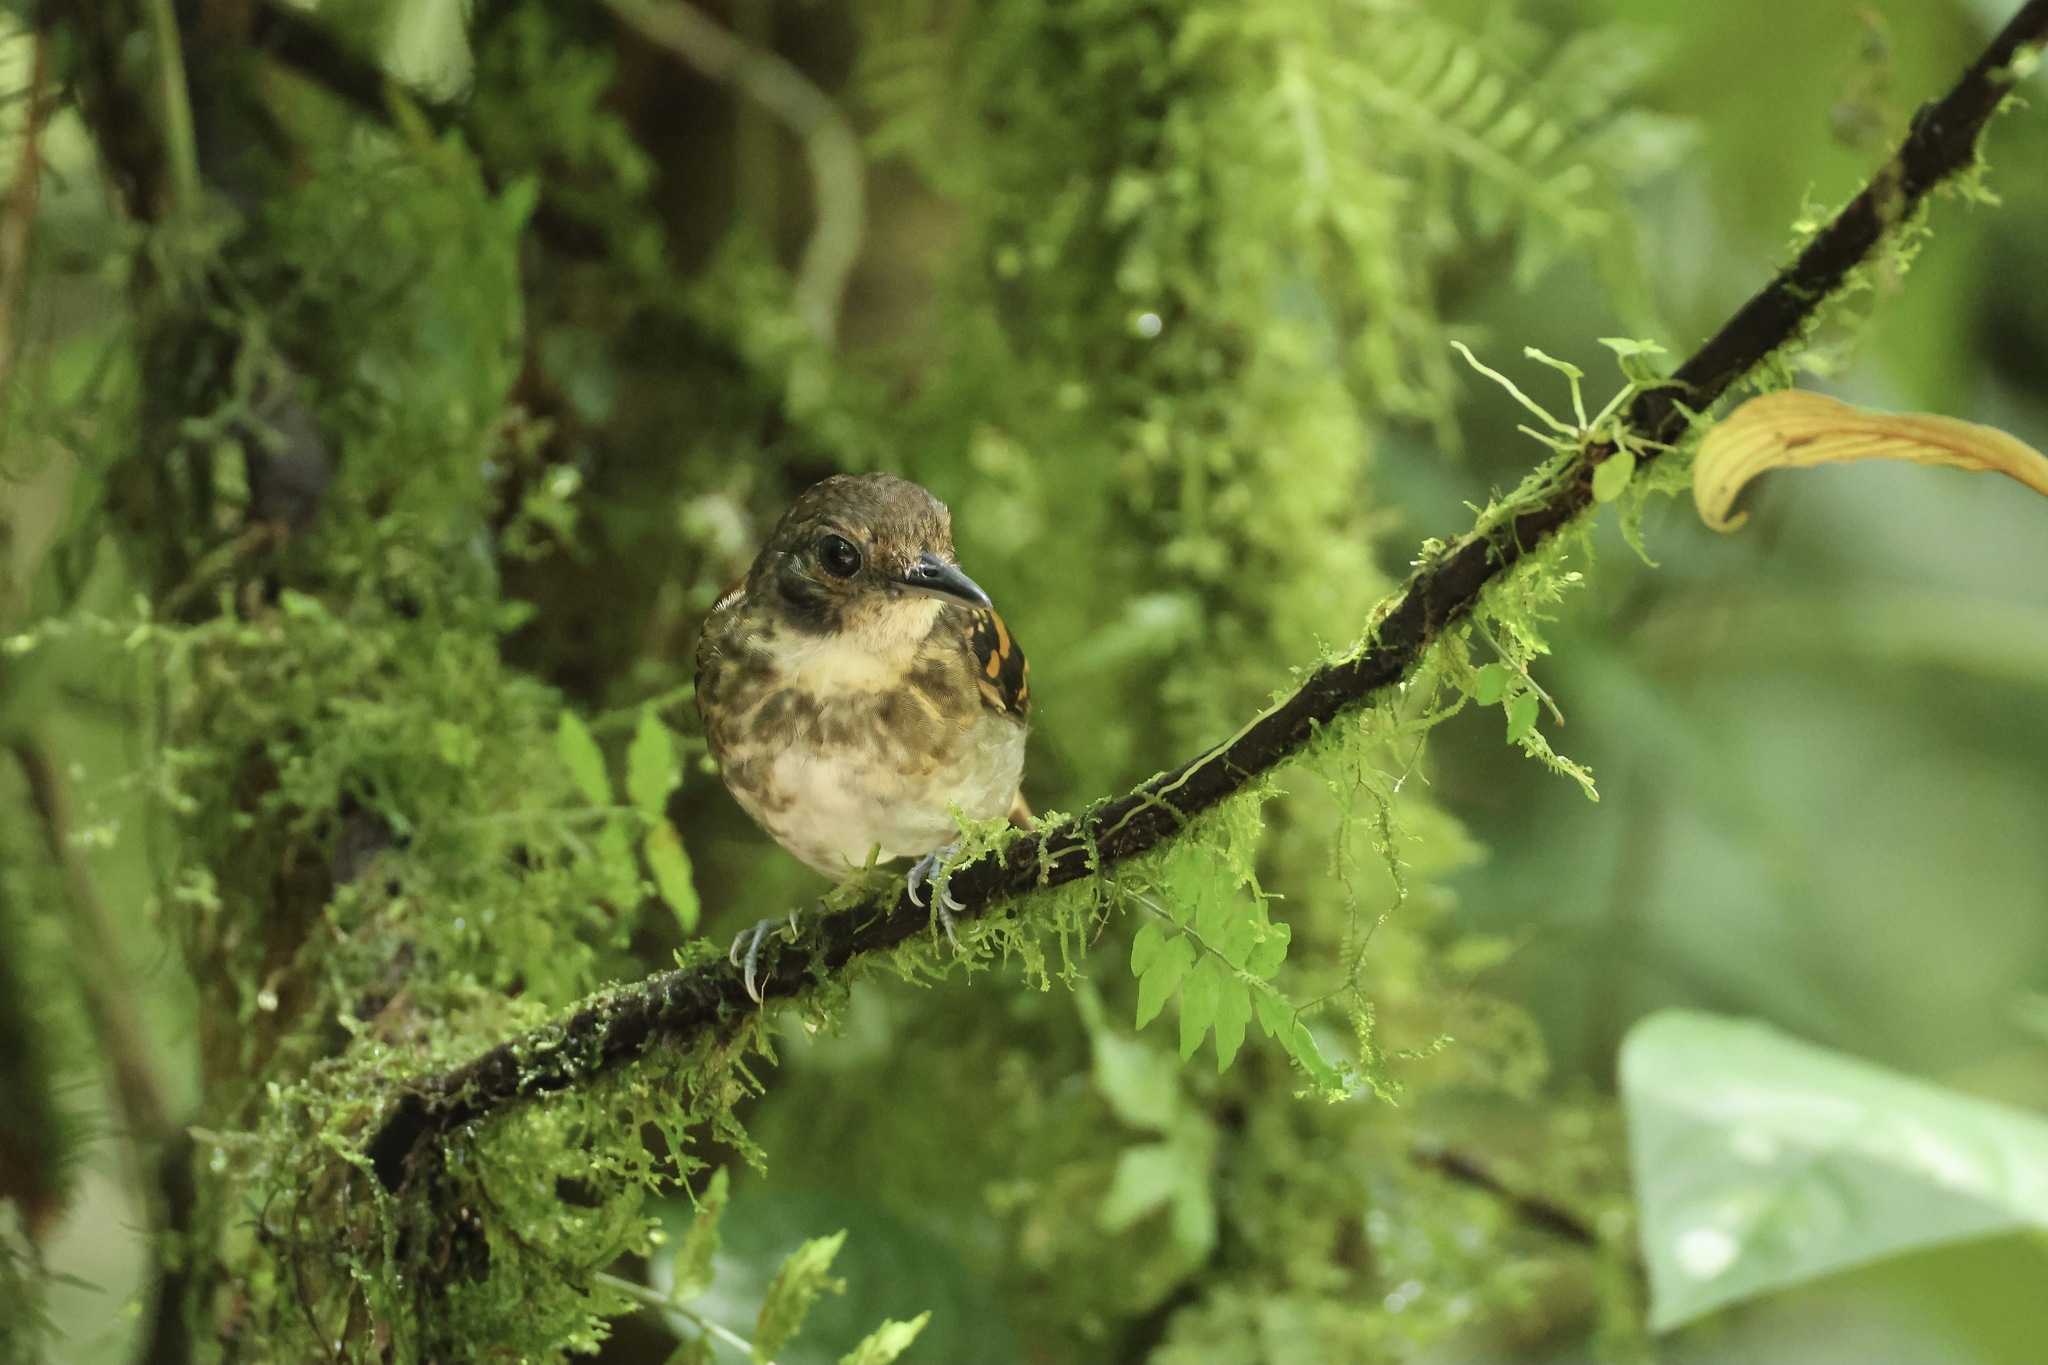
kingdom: Animalia
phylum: Chordata
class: Aves
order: Passeriformes
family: Thamnophilidae
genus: Hylophylax
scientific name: Hylophylax naevioides
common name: Spotted antbird
